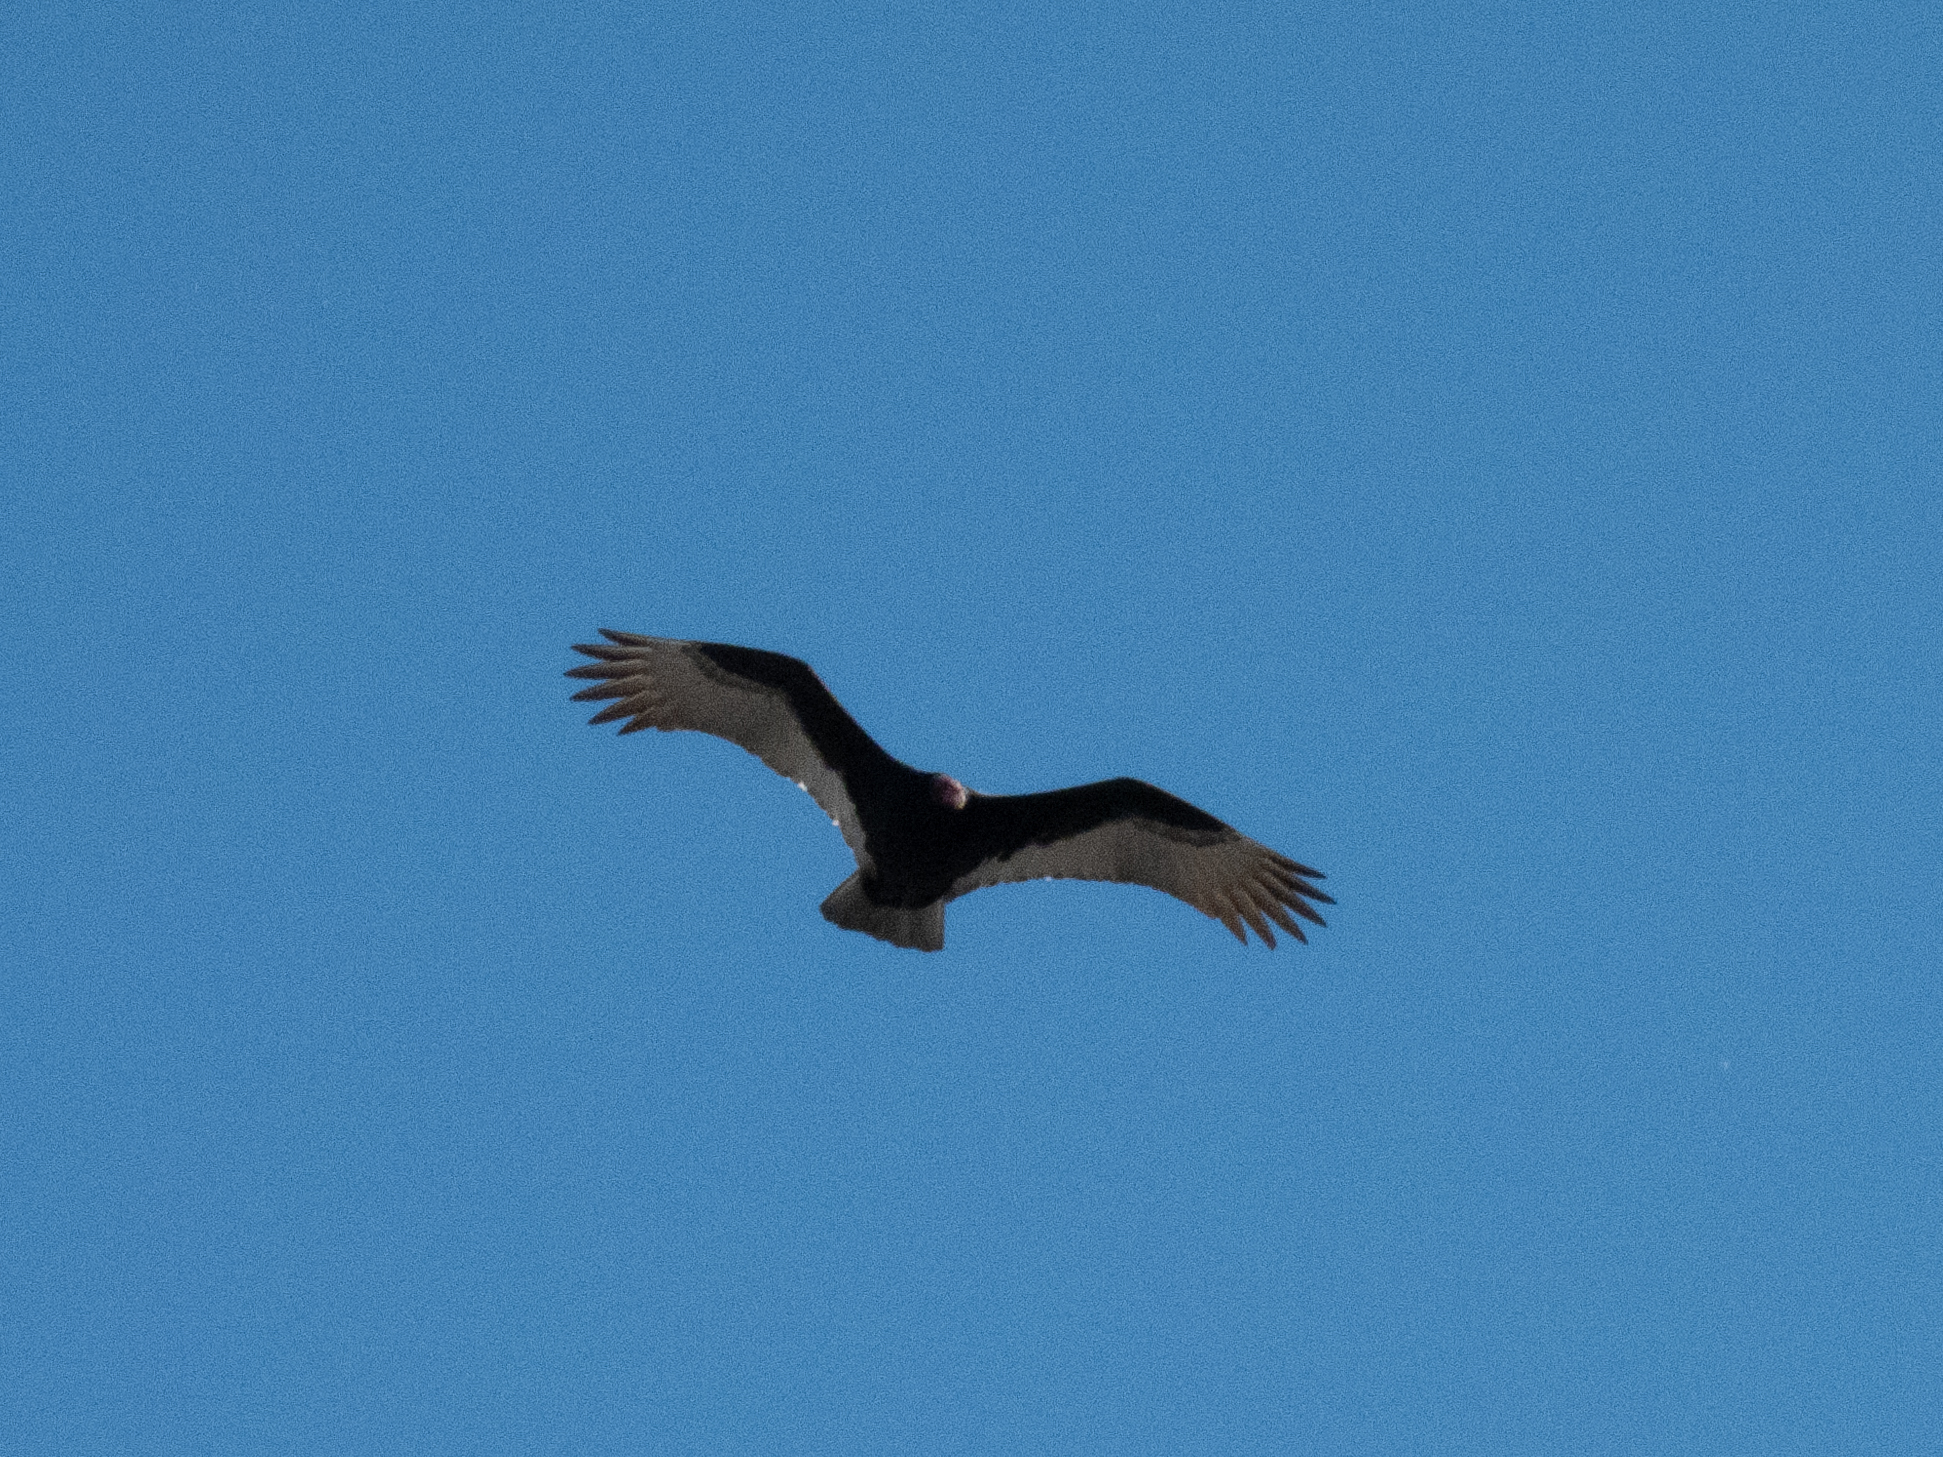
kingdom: Animalia
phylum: Chordata
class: Aves
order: Accipitriformes
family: Cathartidae
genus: Cathartes
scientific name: Cathartes aura
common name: Turkey vulture
